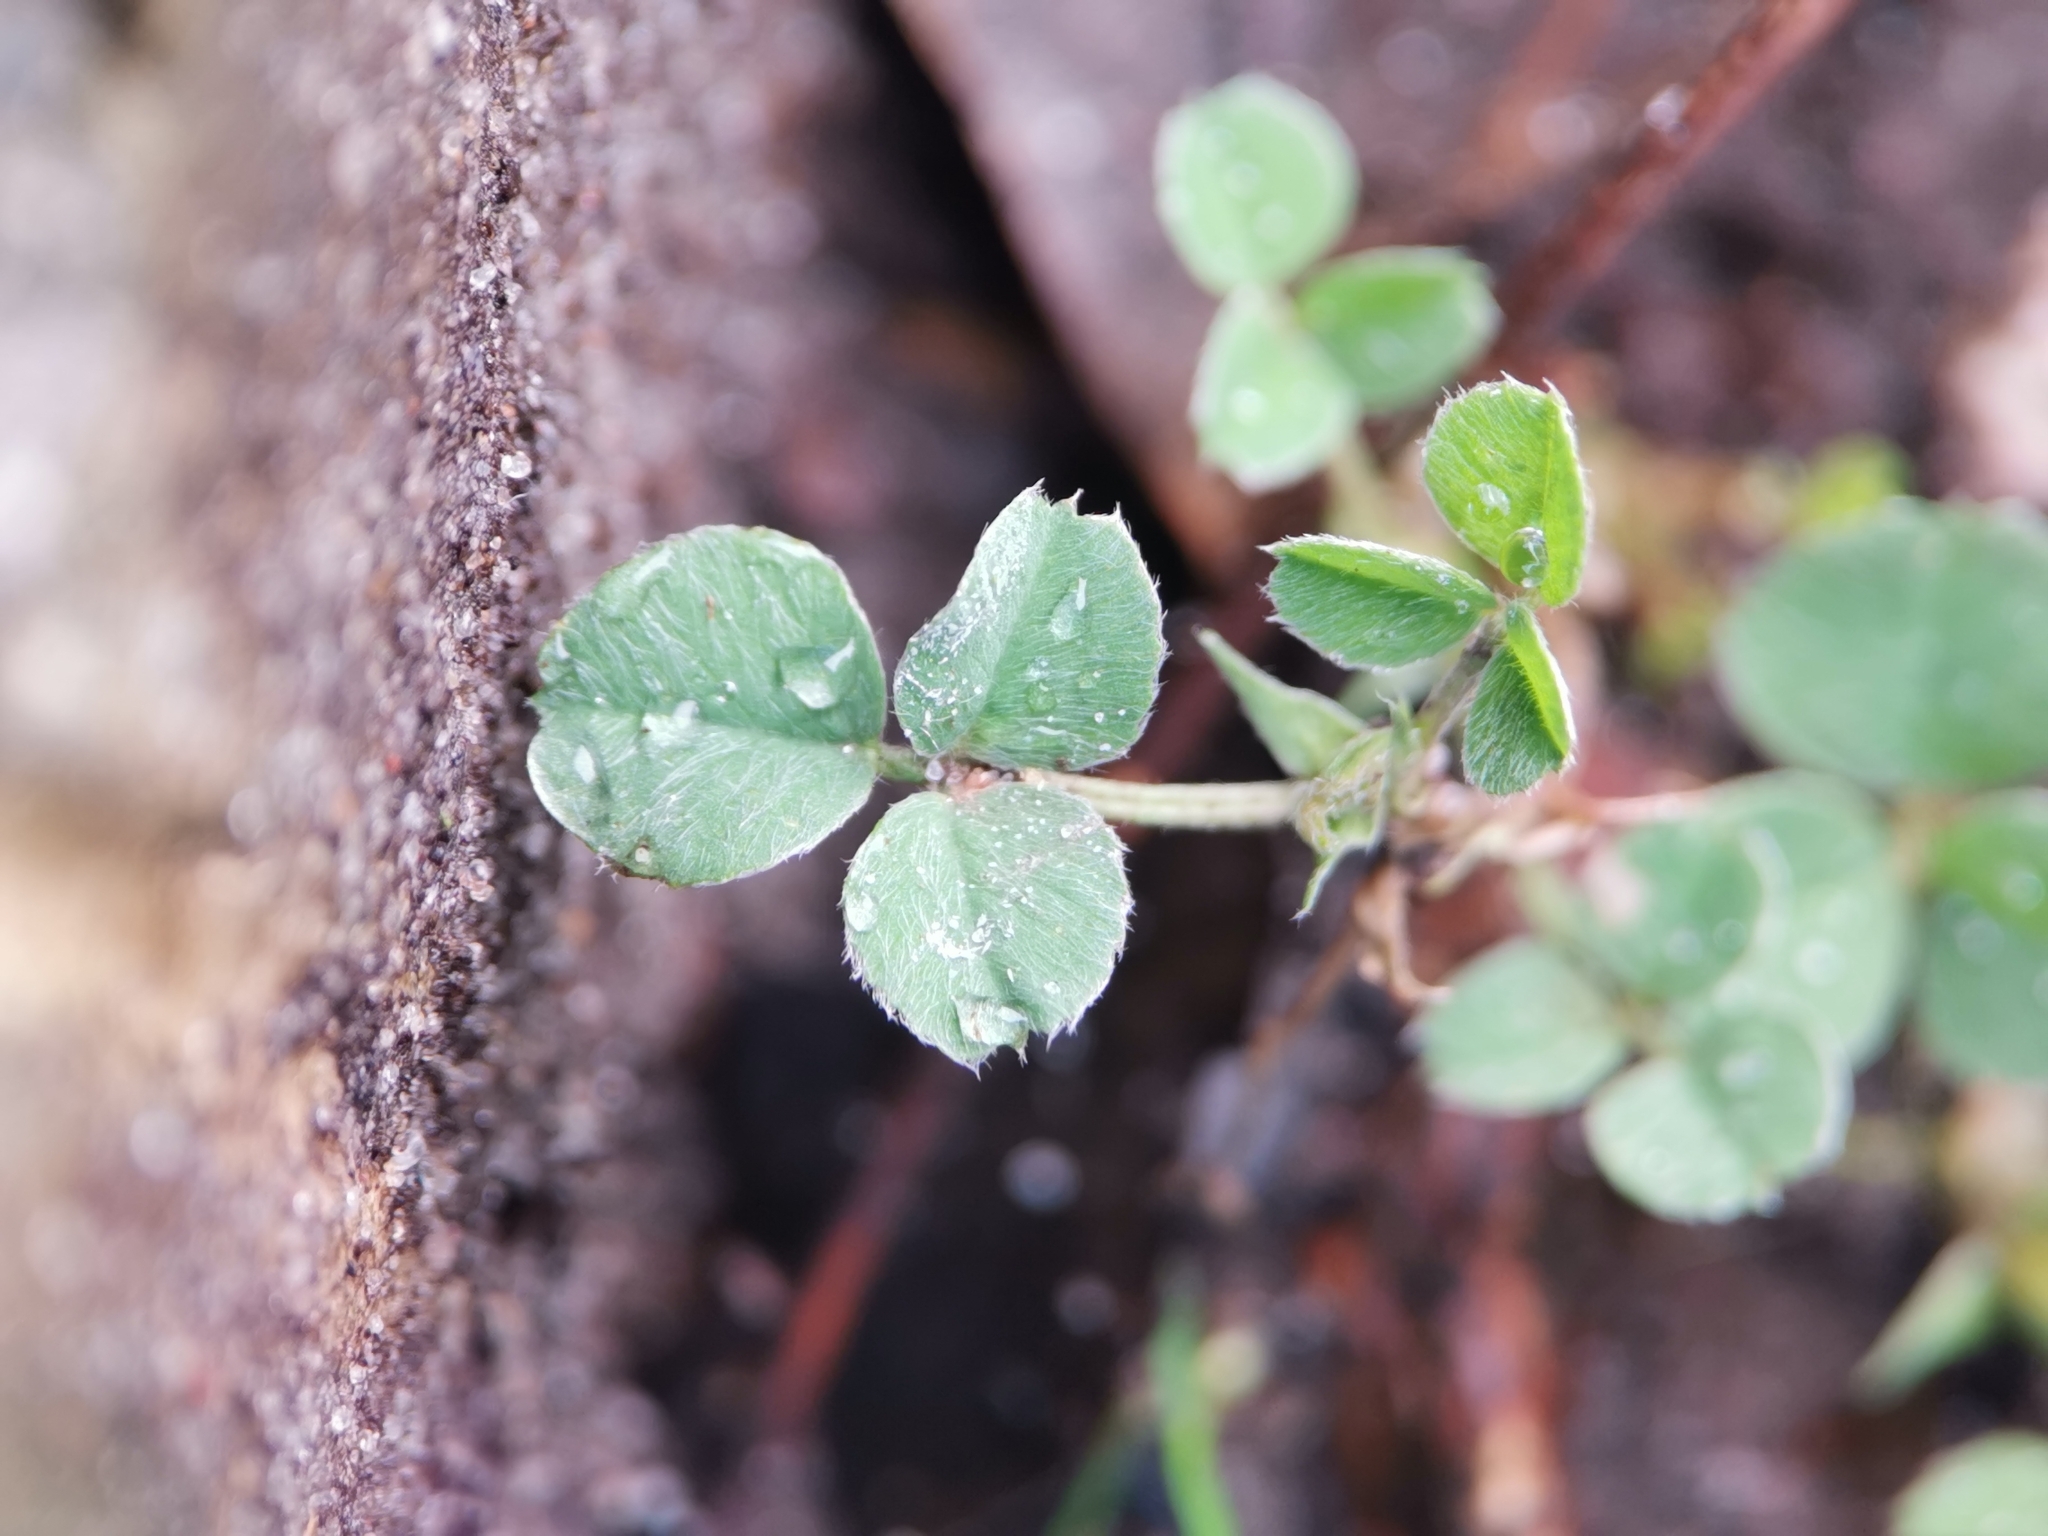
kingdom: Plantae
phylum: Tracheophyta
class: Magnoliopsida
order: Fabales
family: Fabaceae
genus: Medicago
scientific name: Medicago lupulina
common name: Black medick
